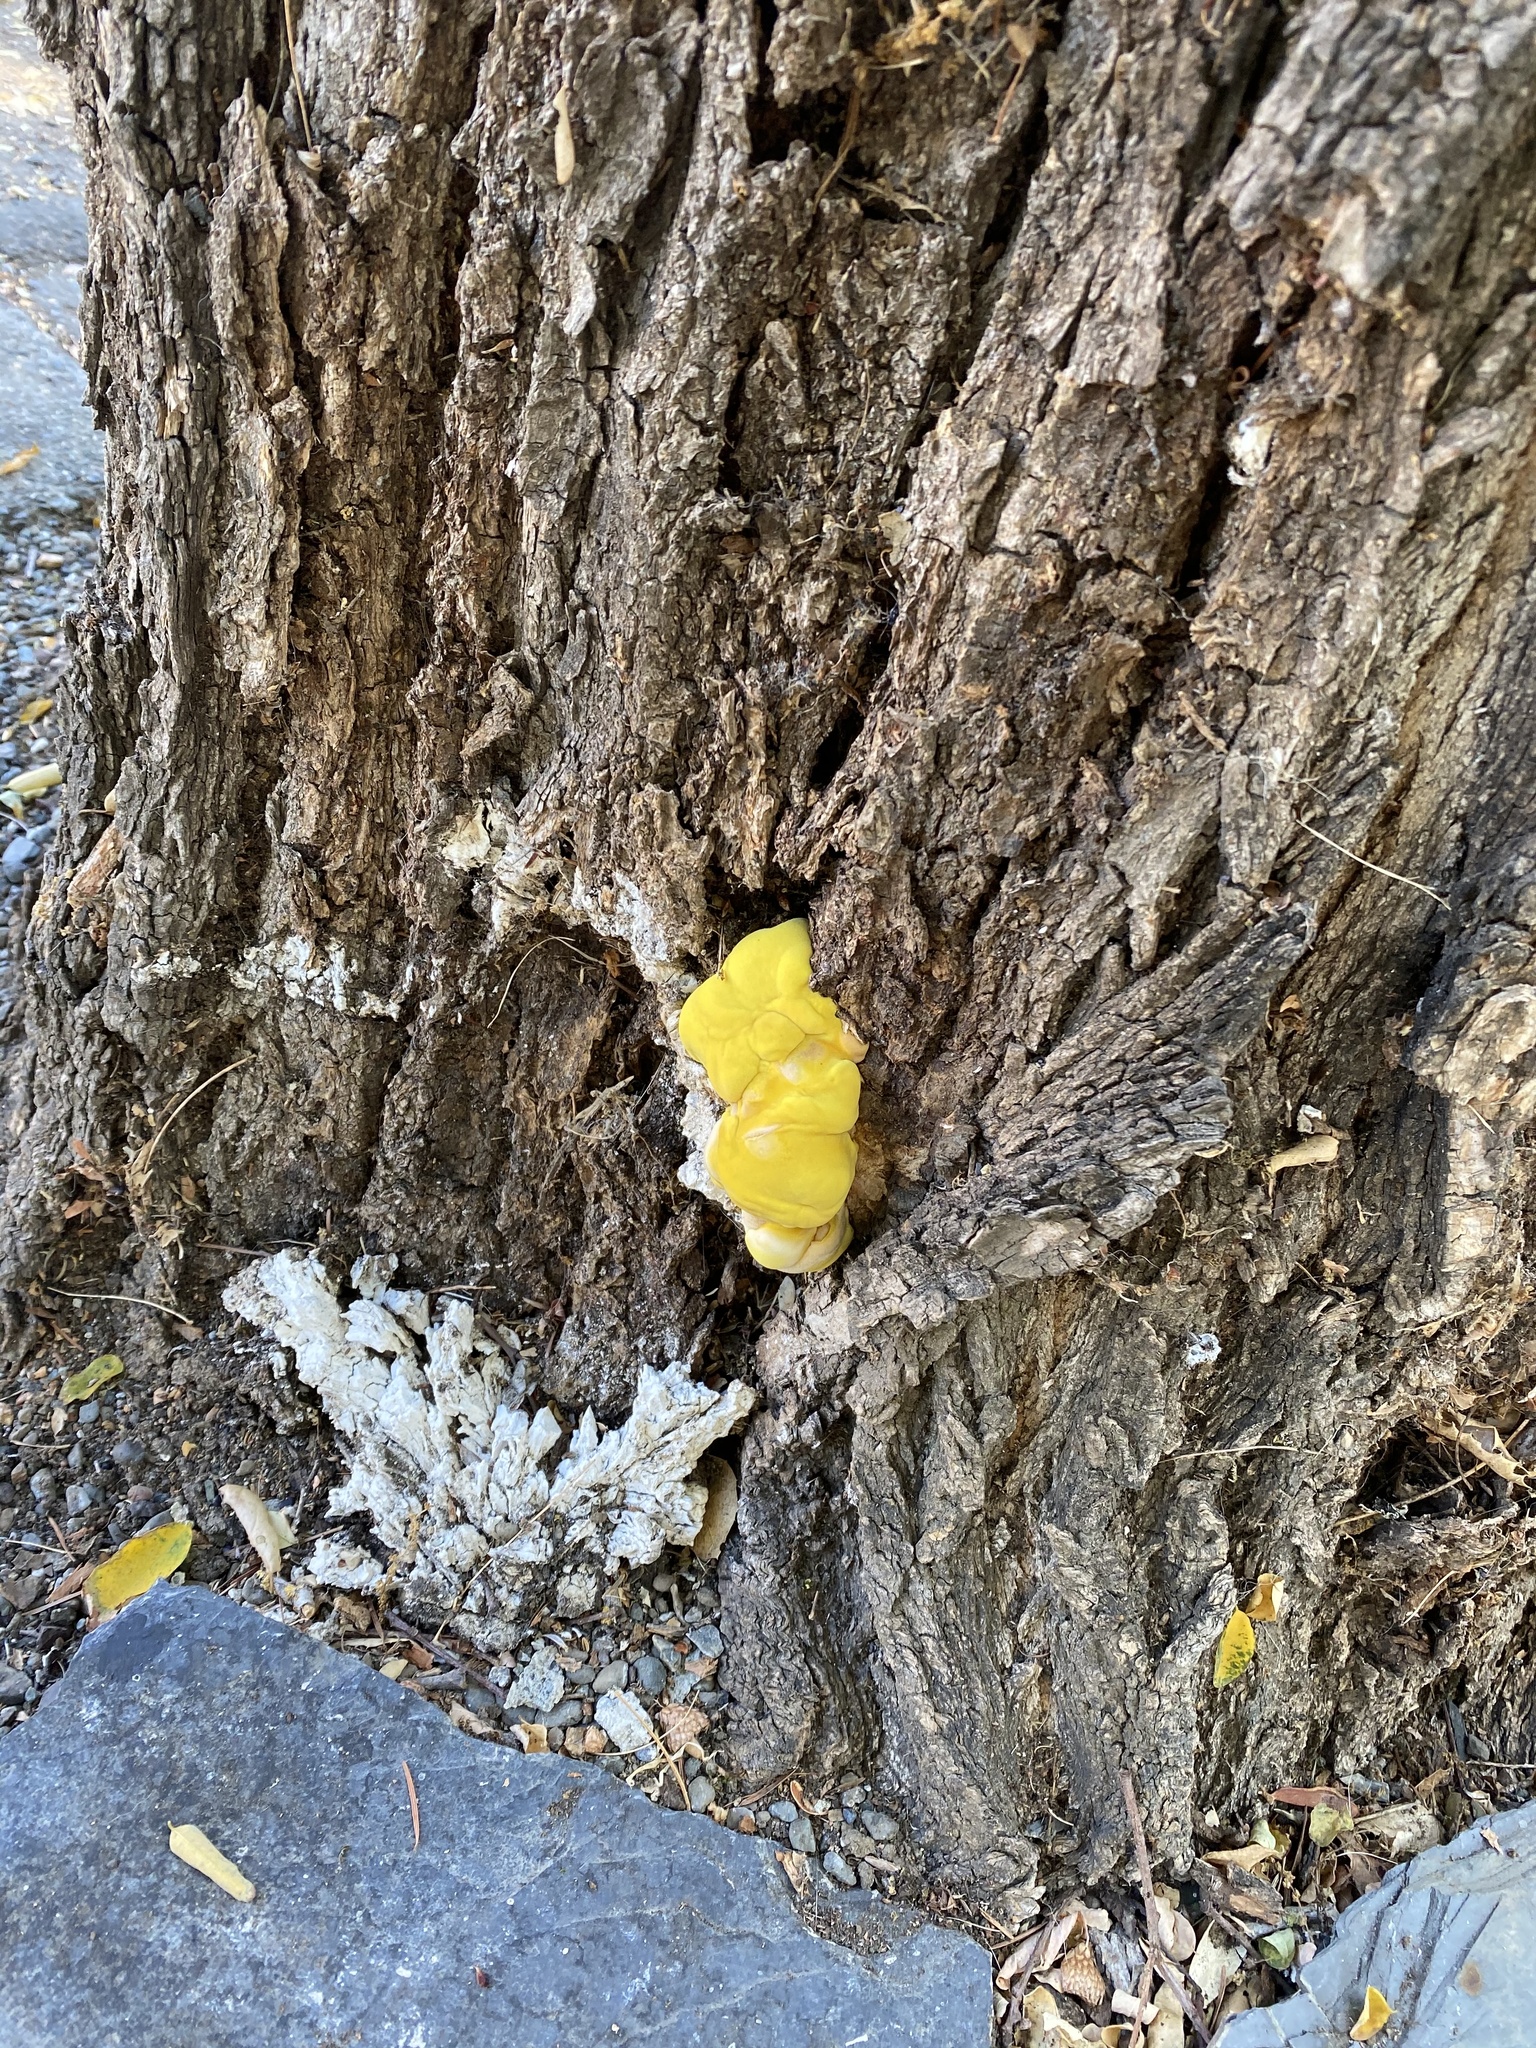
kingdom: Fungi
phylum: Basidiomycota
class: Agaricomycetes
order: Polyporales
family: Laetiporaceae
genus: Laetiporus
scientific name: Laetiporus gilbertsonii
